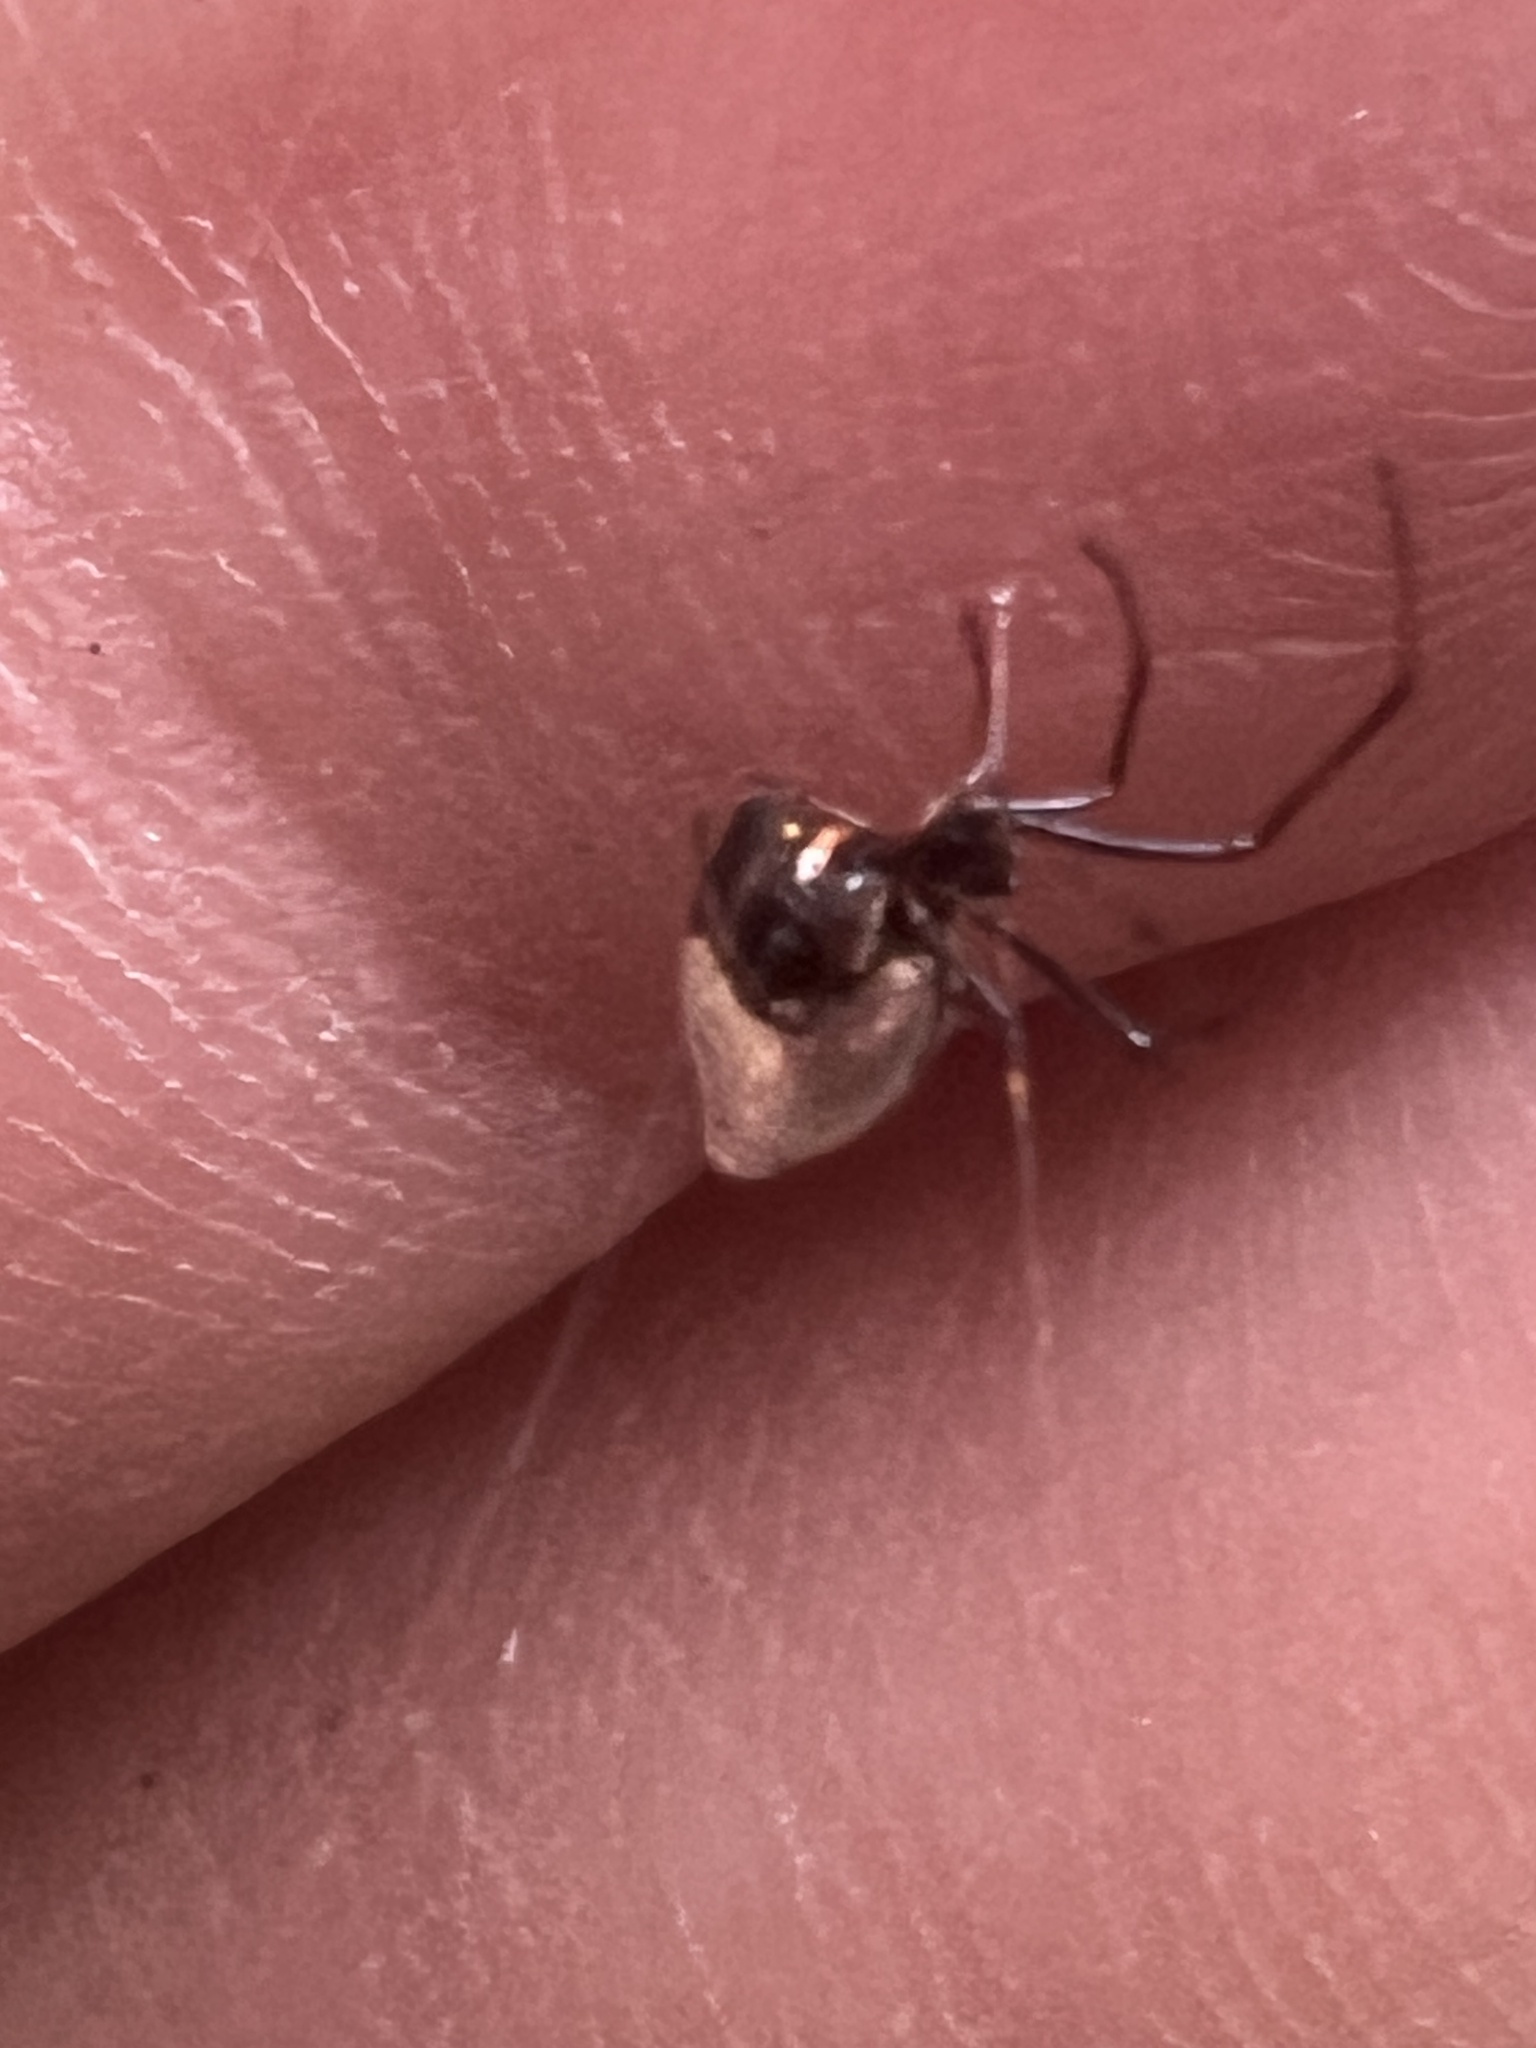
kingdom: Animalia
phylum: Arthropoda
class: Arachnida
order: Araneae
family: Theridiidae
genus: Argyrodes
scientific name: Argyrodes antipodianus
